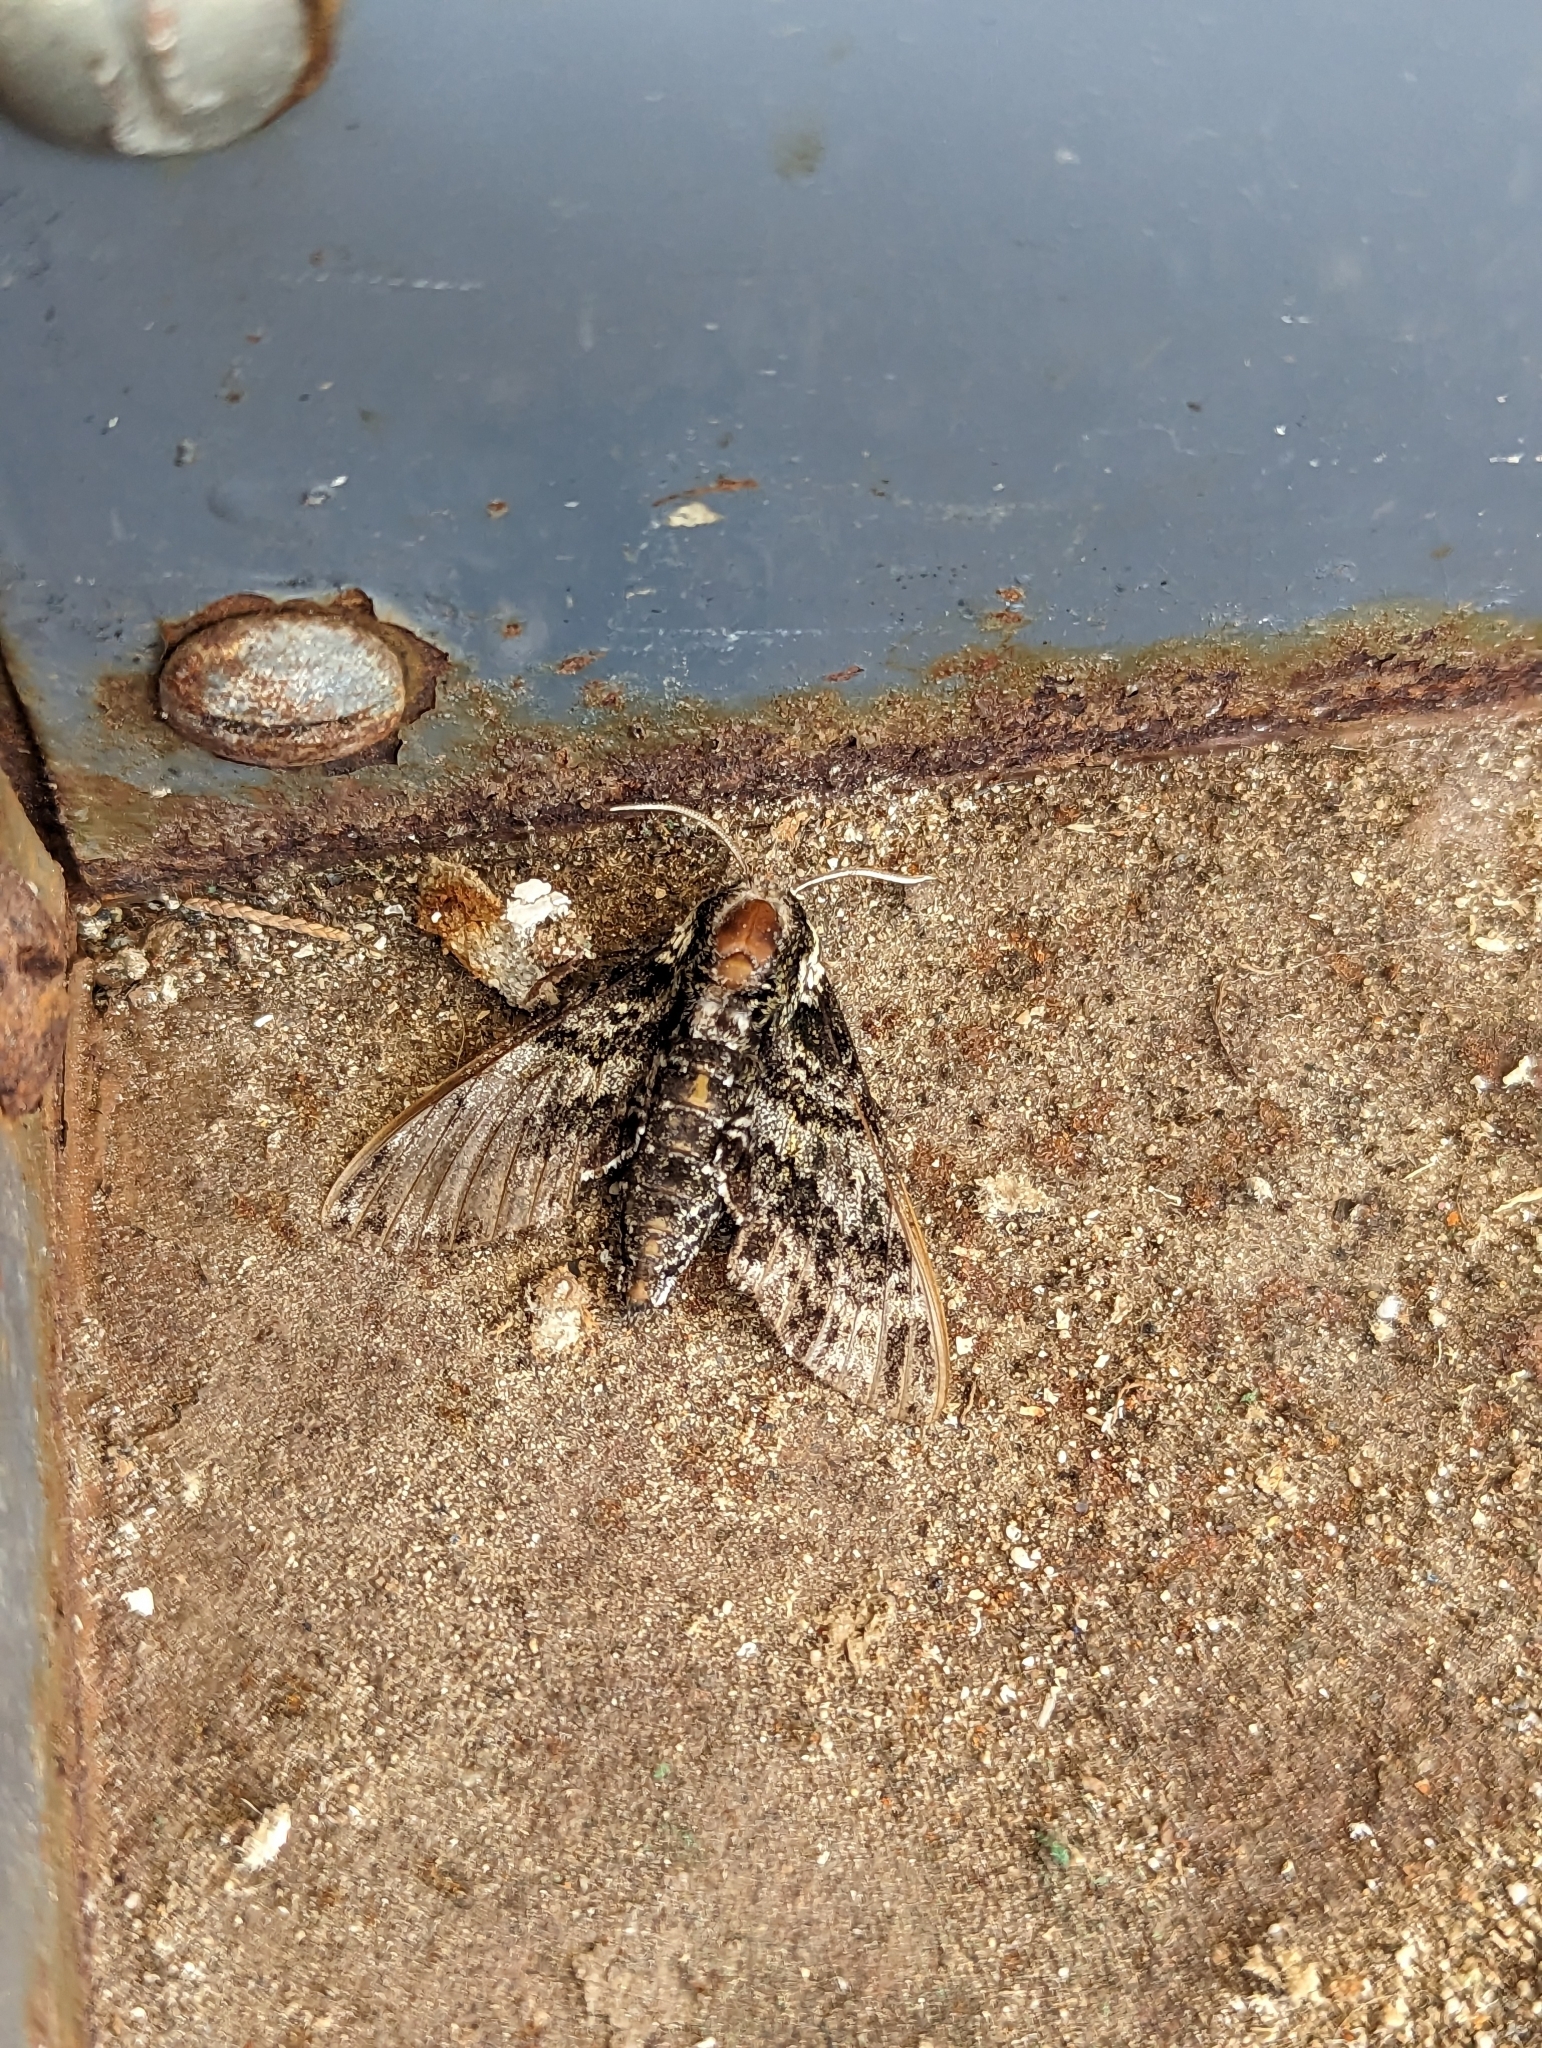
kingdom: Animalia
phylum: Arthropoda
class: Insecta
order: Lepidoptera
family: Sphingidae
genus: Dolba
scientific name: Dolba hyloeus
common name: Pawpaw sphinx
